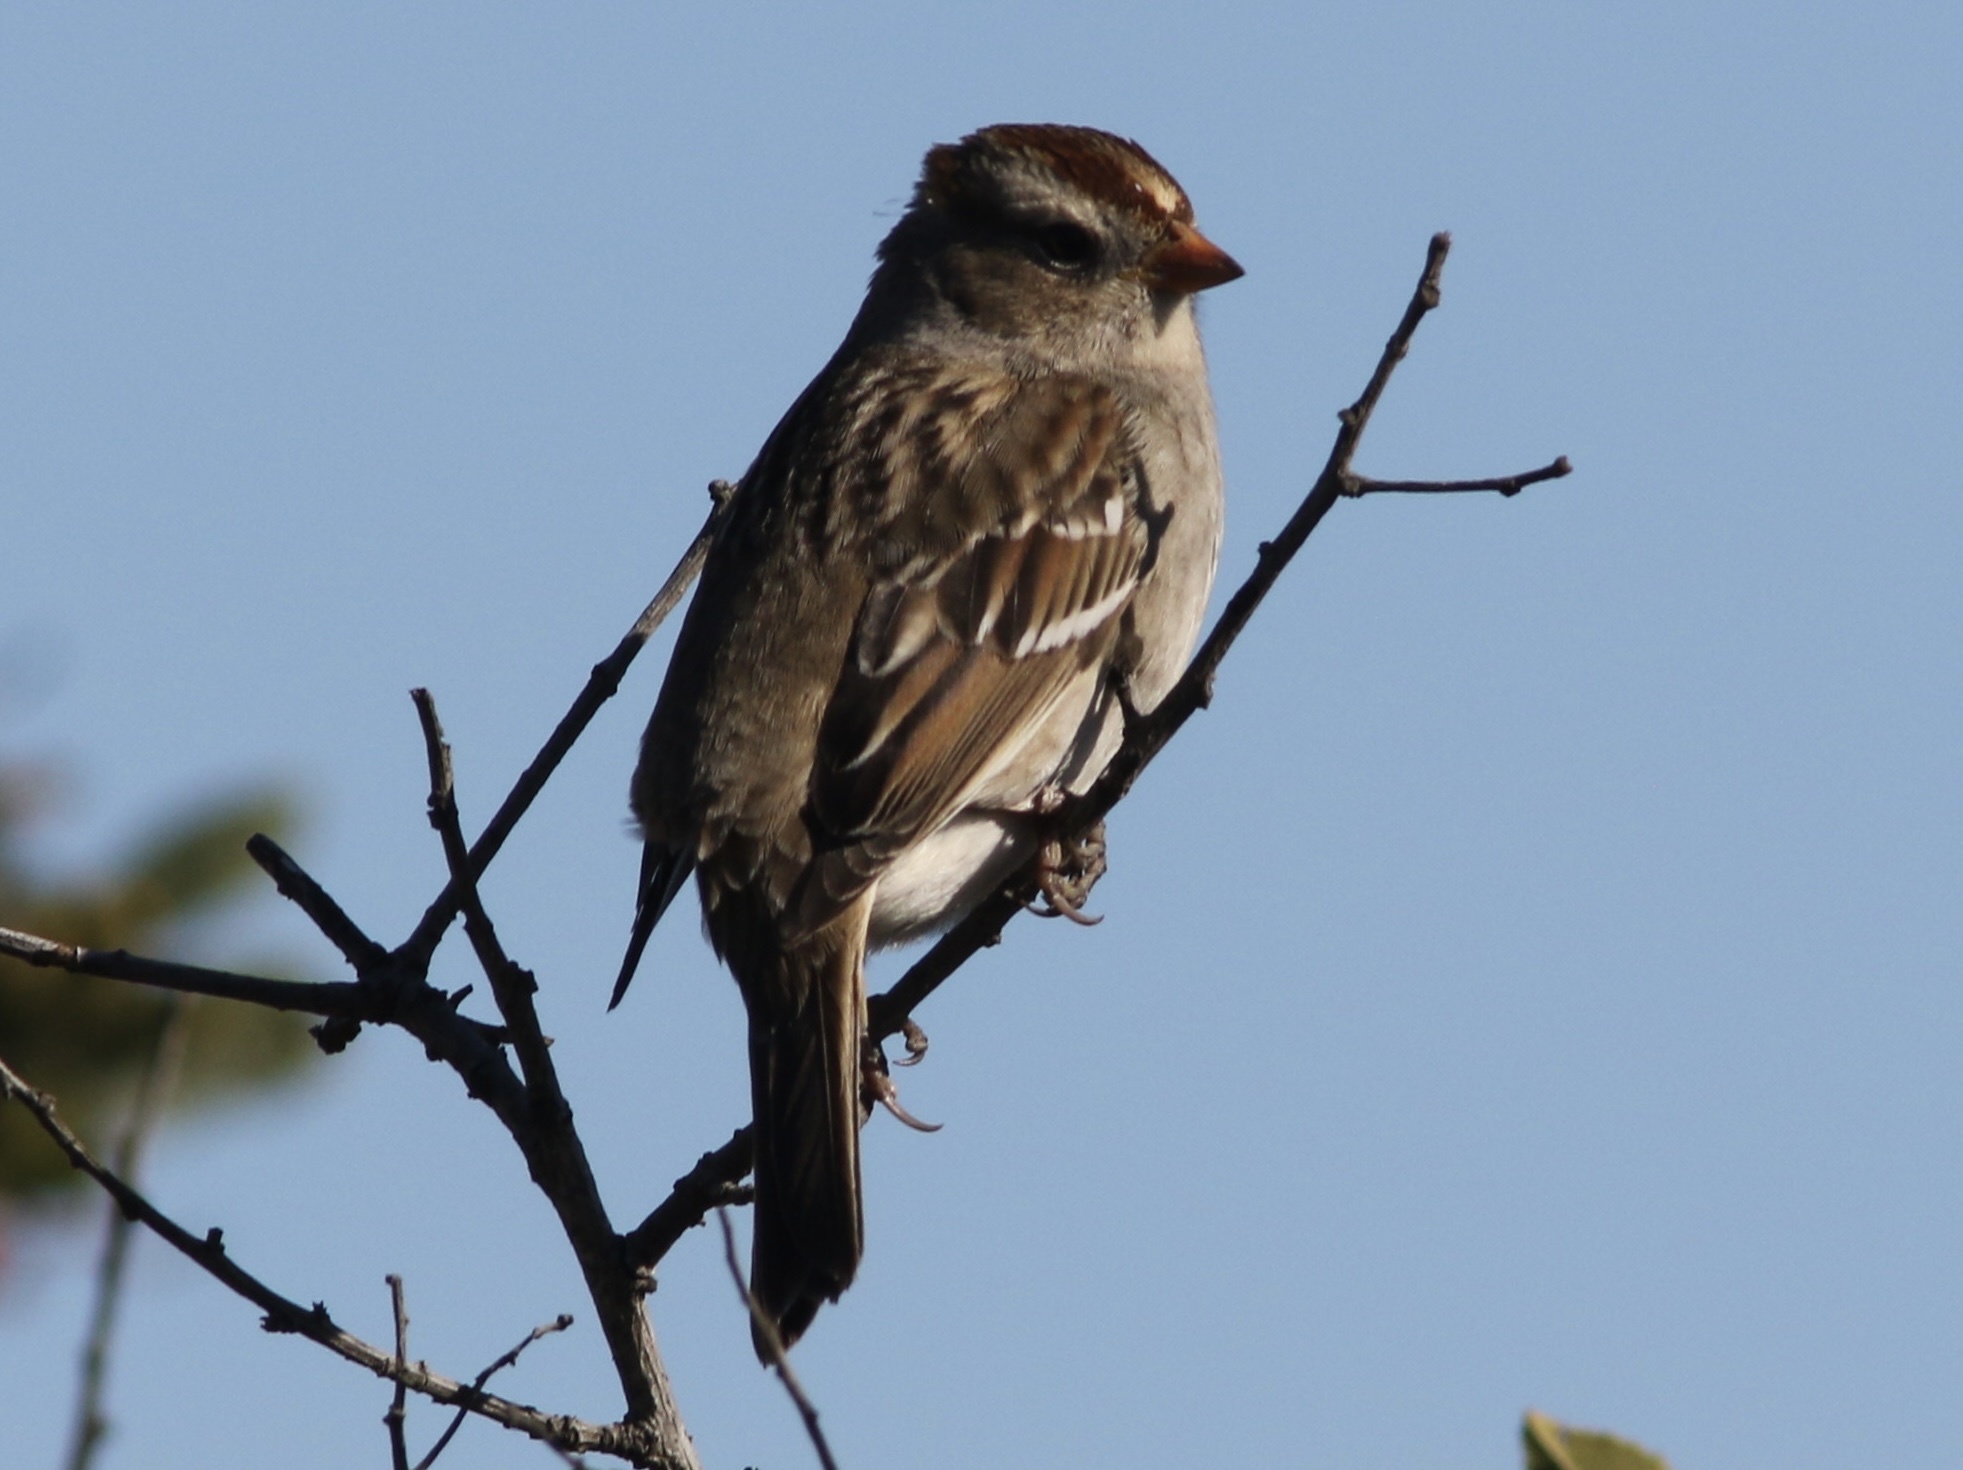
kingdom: Animalia
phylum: Chordata
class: Aves
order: Passeriformes
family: Passerellidae
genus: Zonotrichia
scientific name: Zonotrichia leucophrys
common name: White-crowned sparrow
